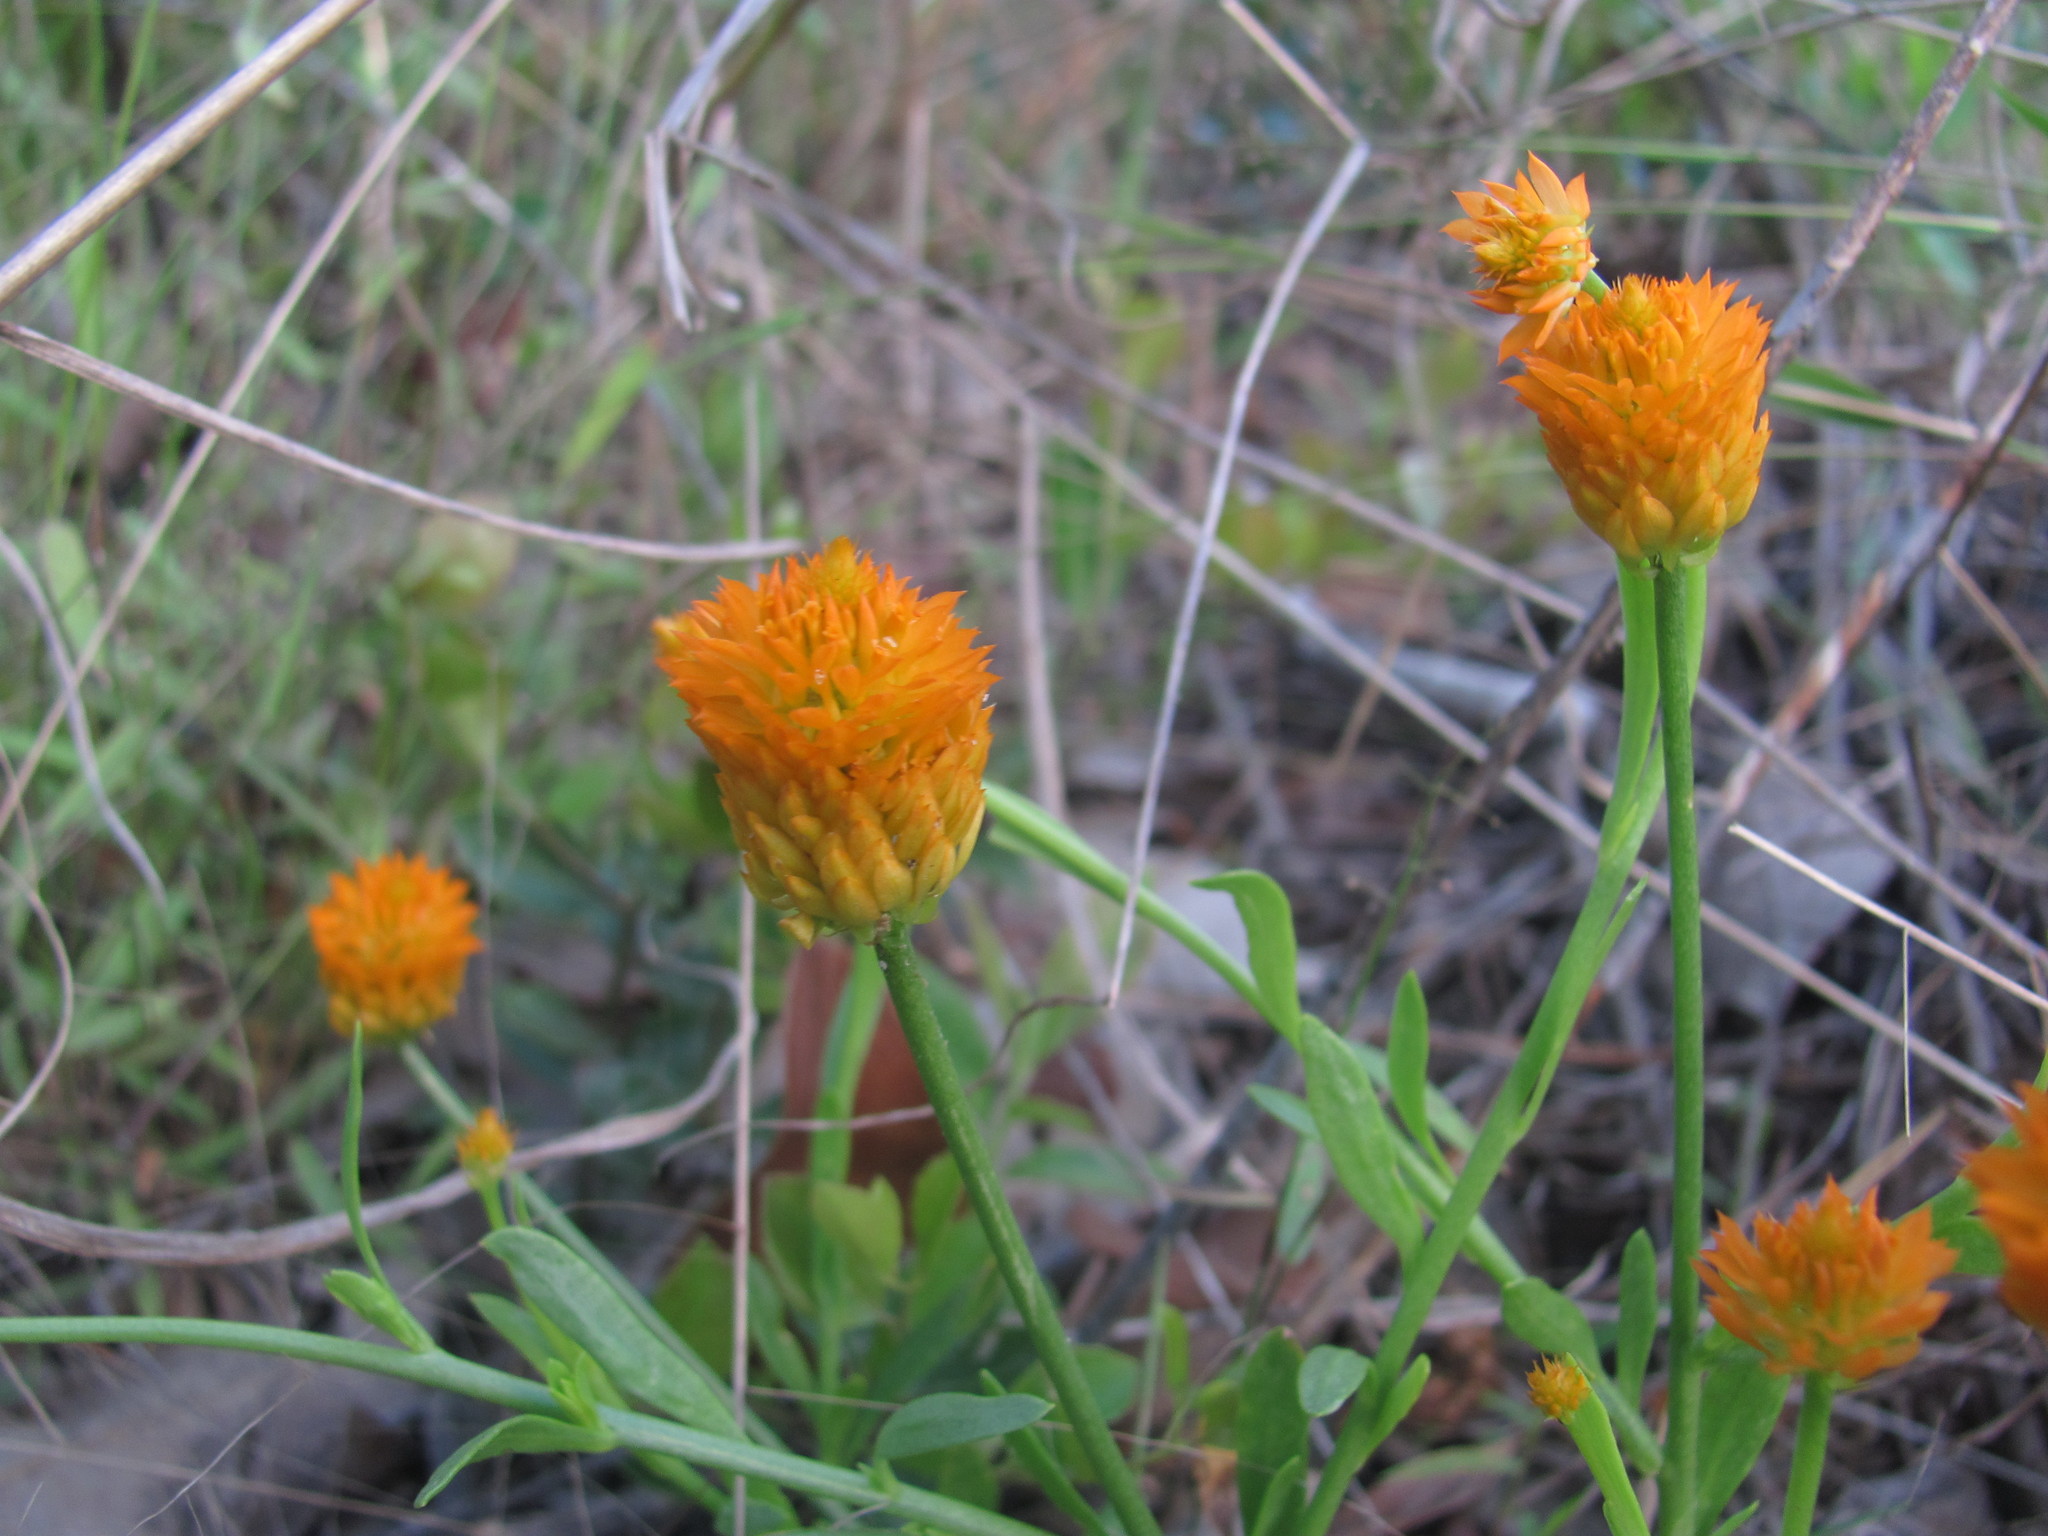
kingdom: Plantae
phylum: Tracheophyta
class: Magnoliopsida
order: Fabales
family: Polygalaceae
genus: Polygala
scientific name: Polygala lutea
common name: Orange milkwort
